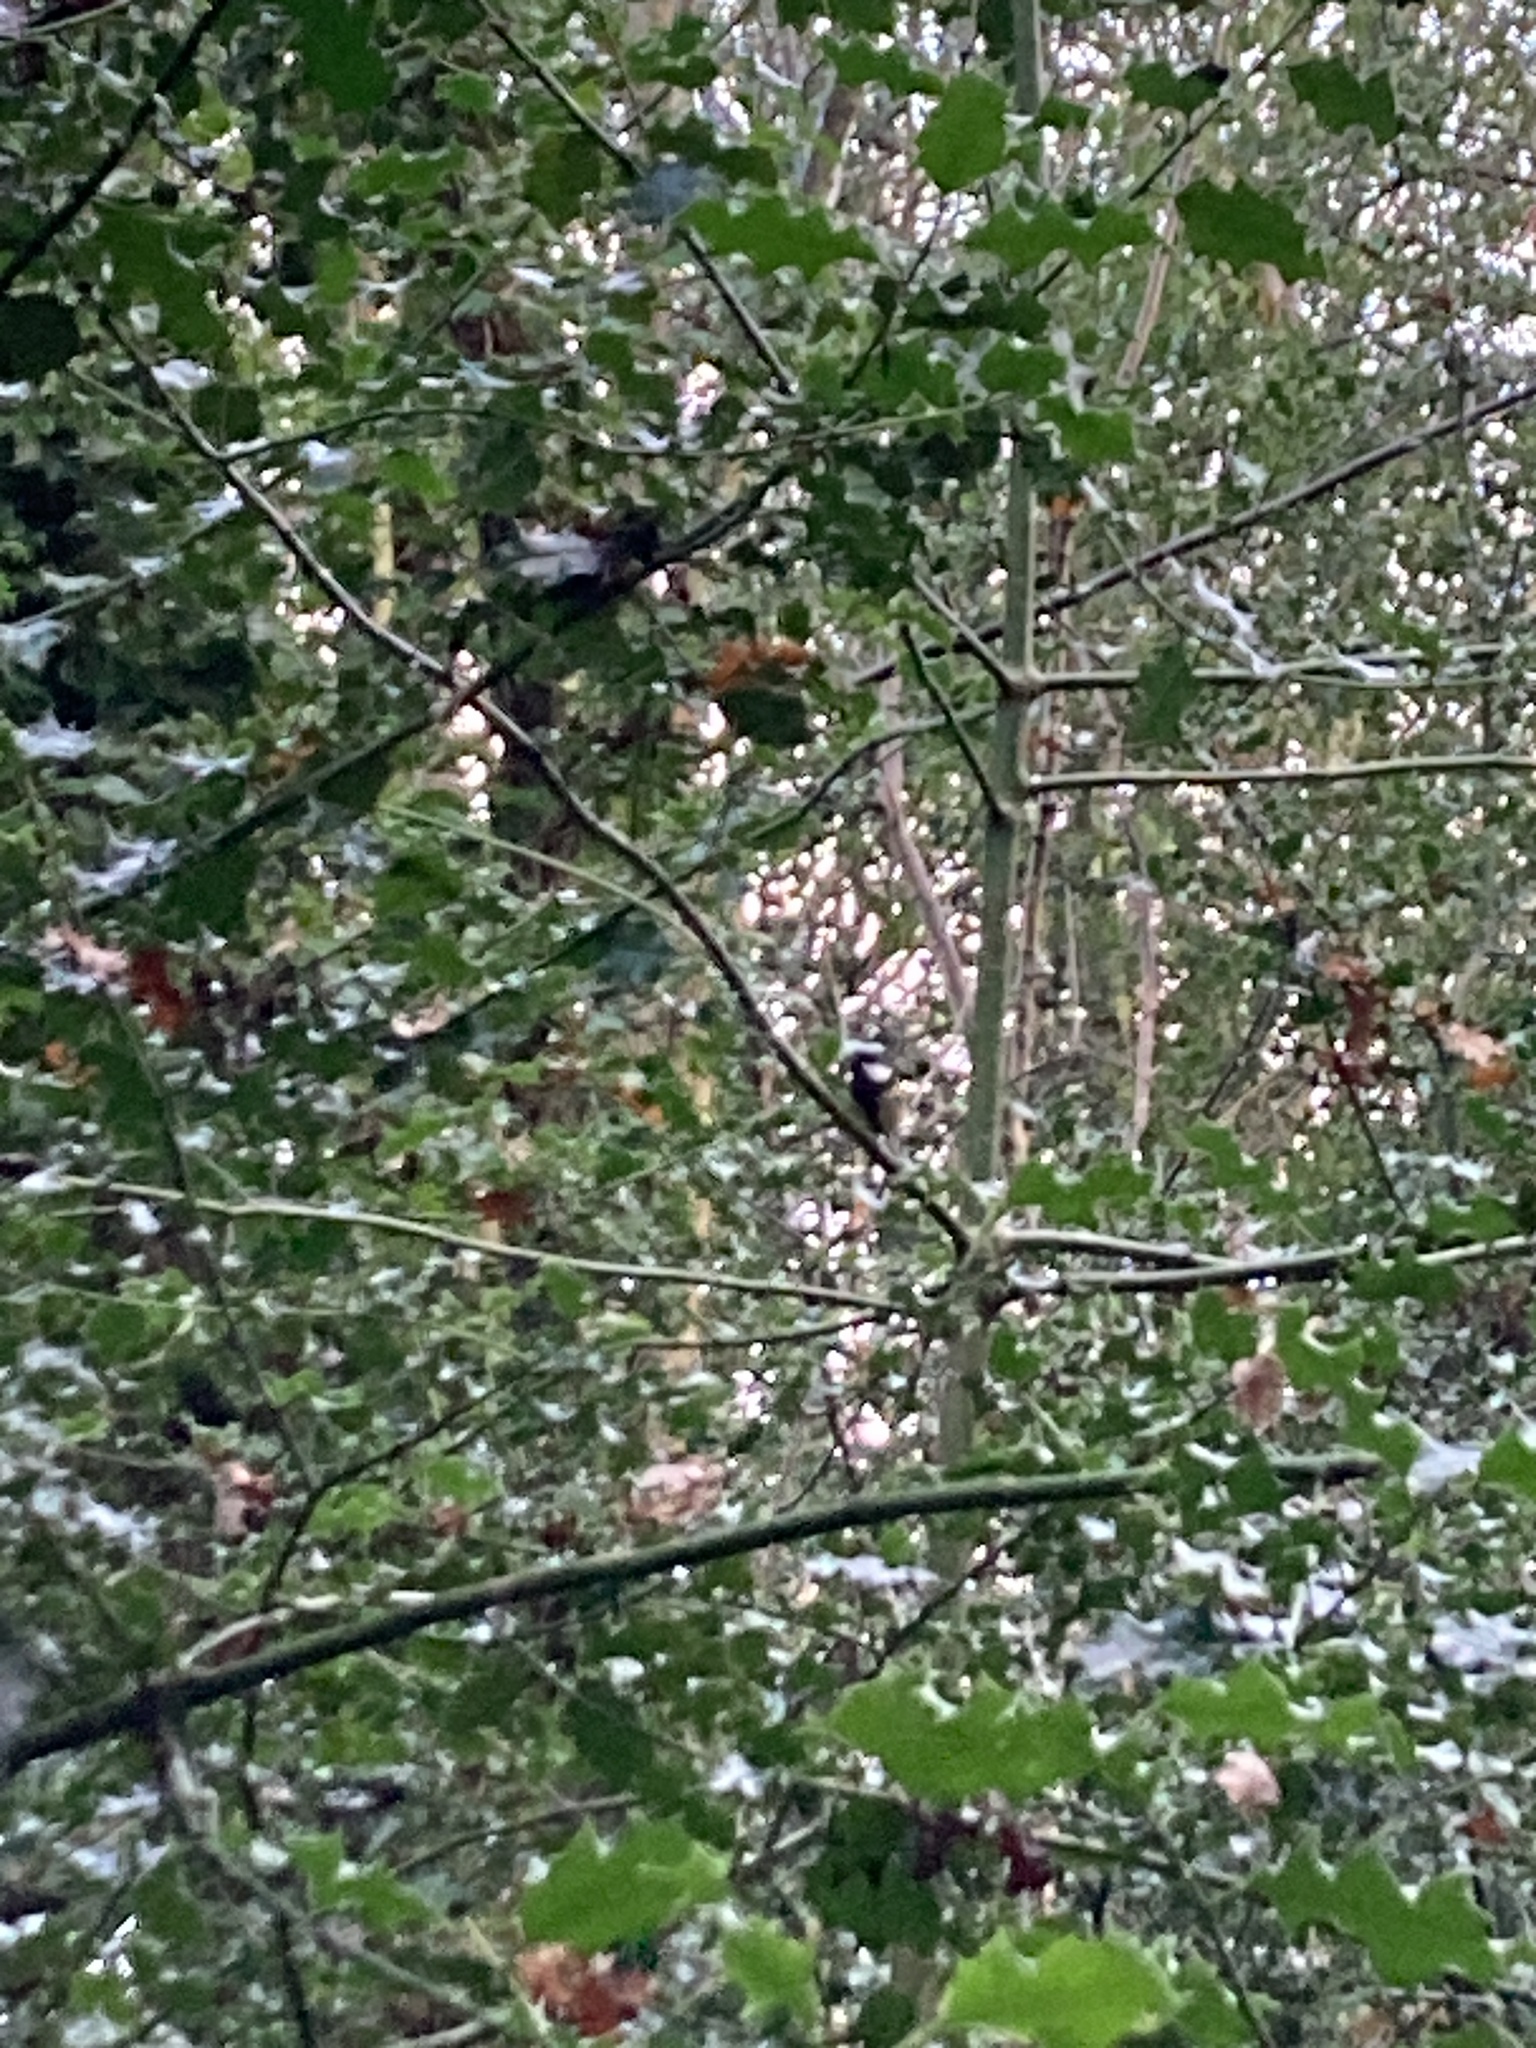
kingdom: Animalia
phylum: Chordata
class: Aves
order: Passeriformes
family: Paridae
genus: Parus
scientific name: Parus major
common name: Great tit
